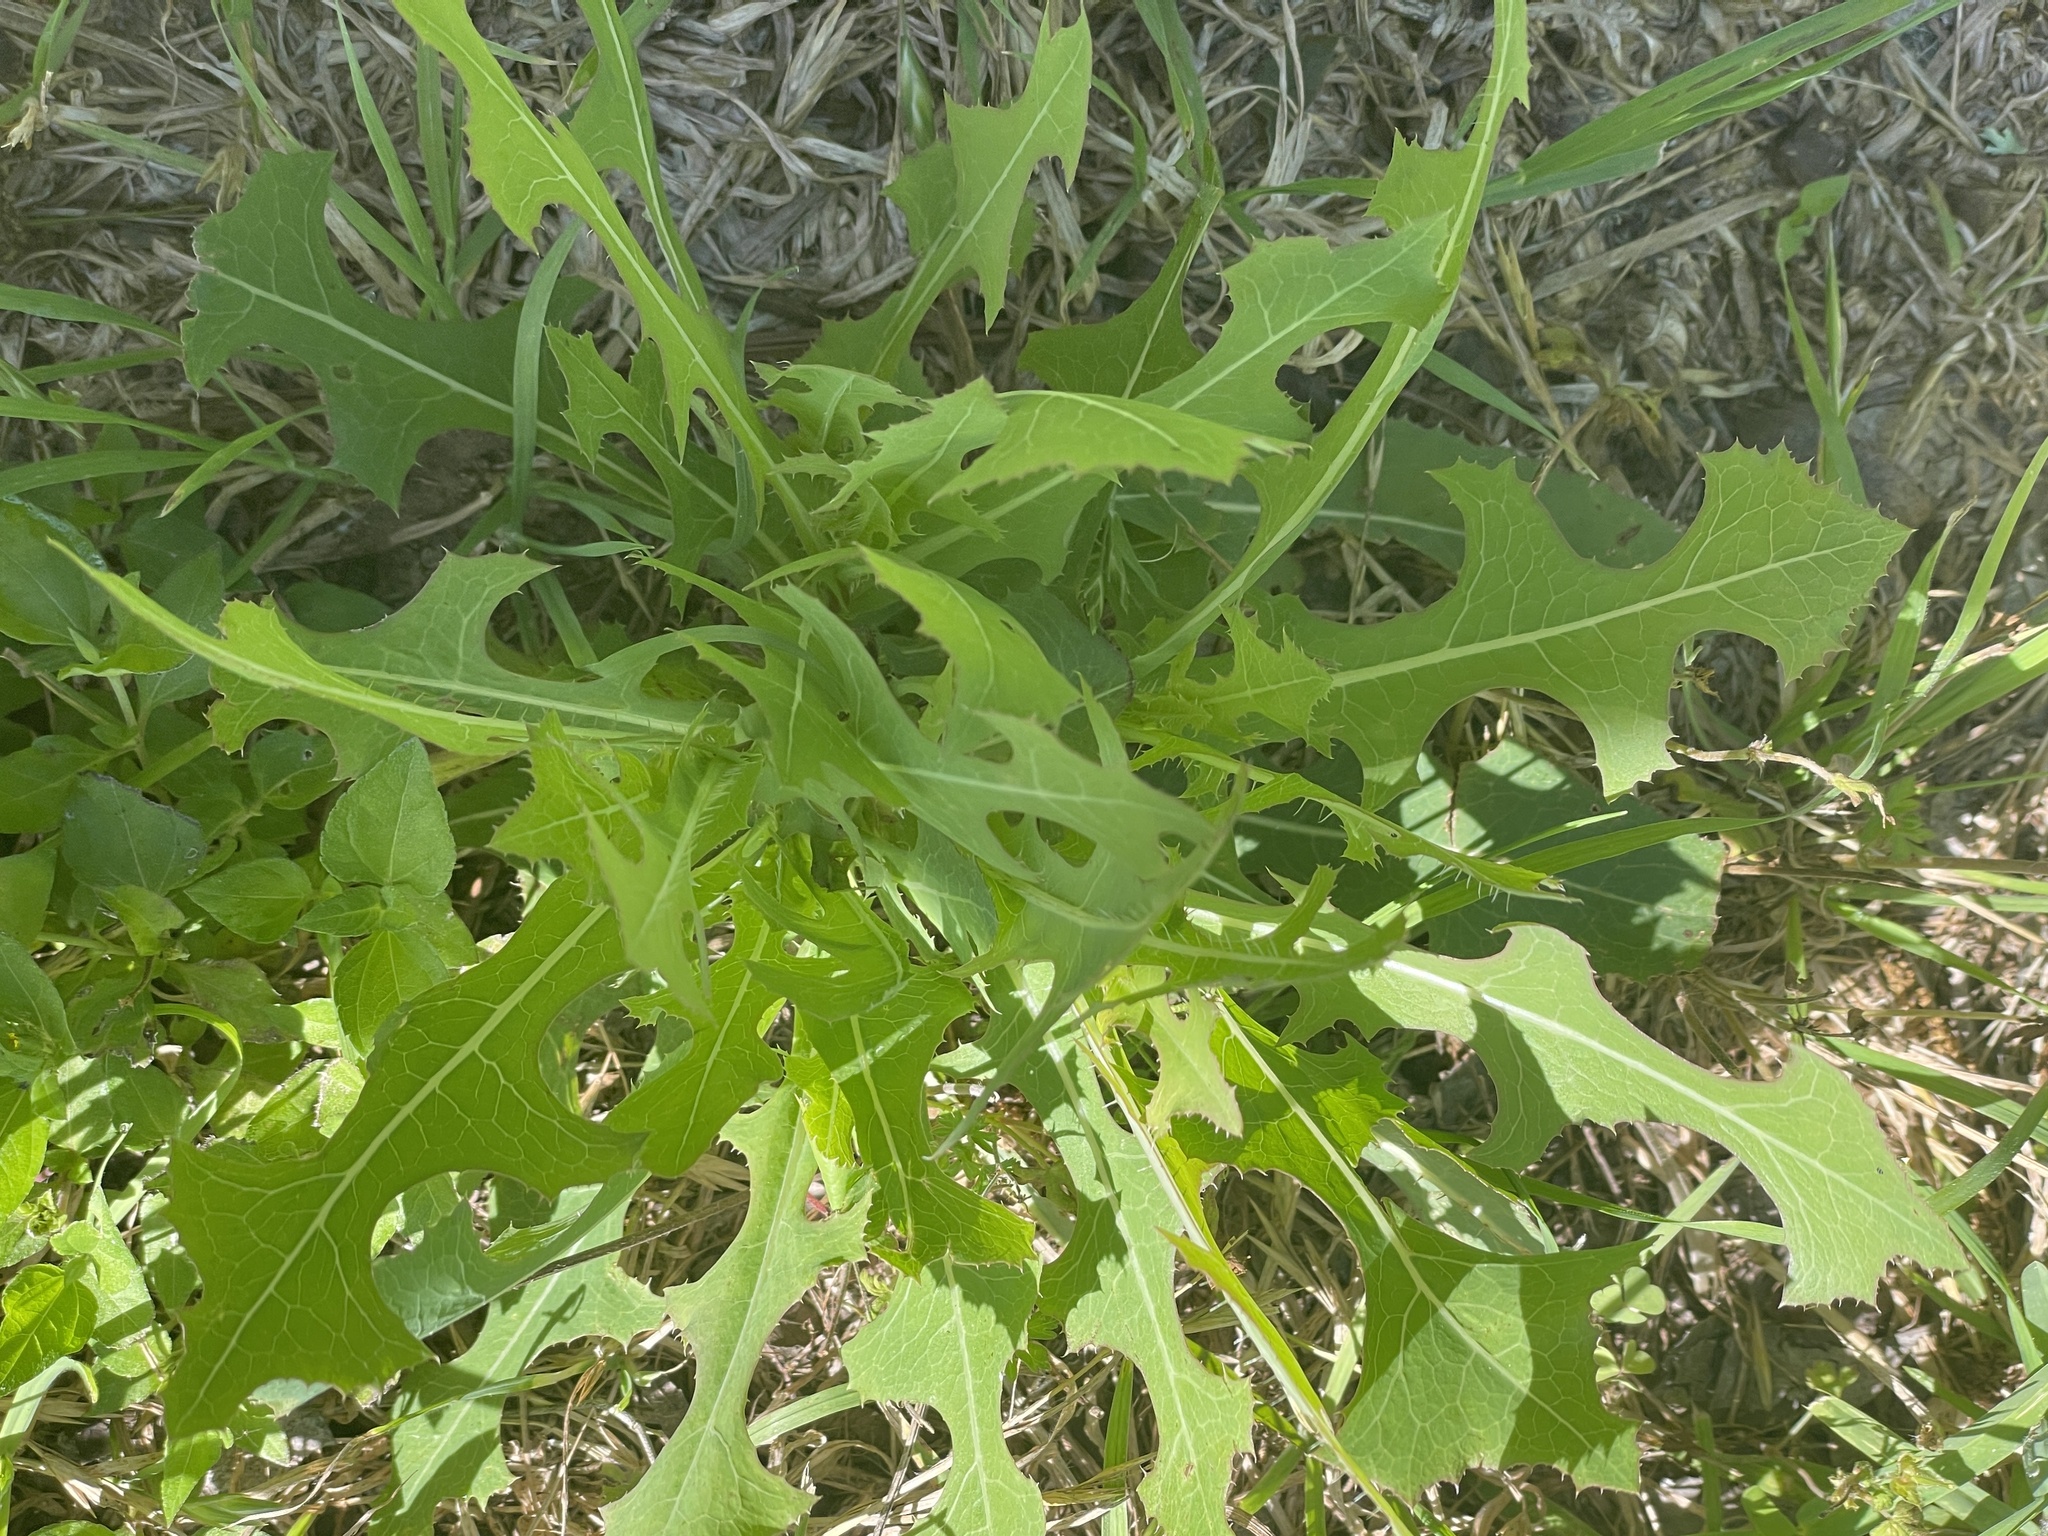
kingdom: Plantae
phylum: Tracheophyta
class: Magnoliopsida
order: Asterales
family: Asteraceae
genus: Lactuca
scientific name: Lactuca serriola
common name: Prickly lettuce
